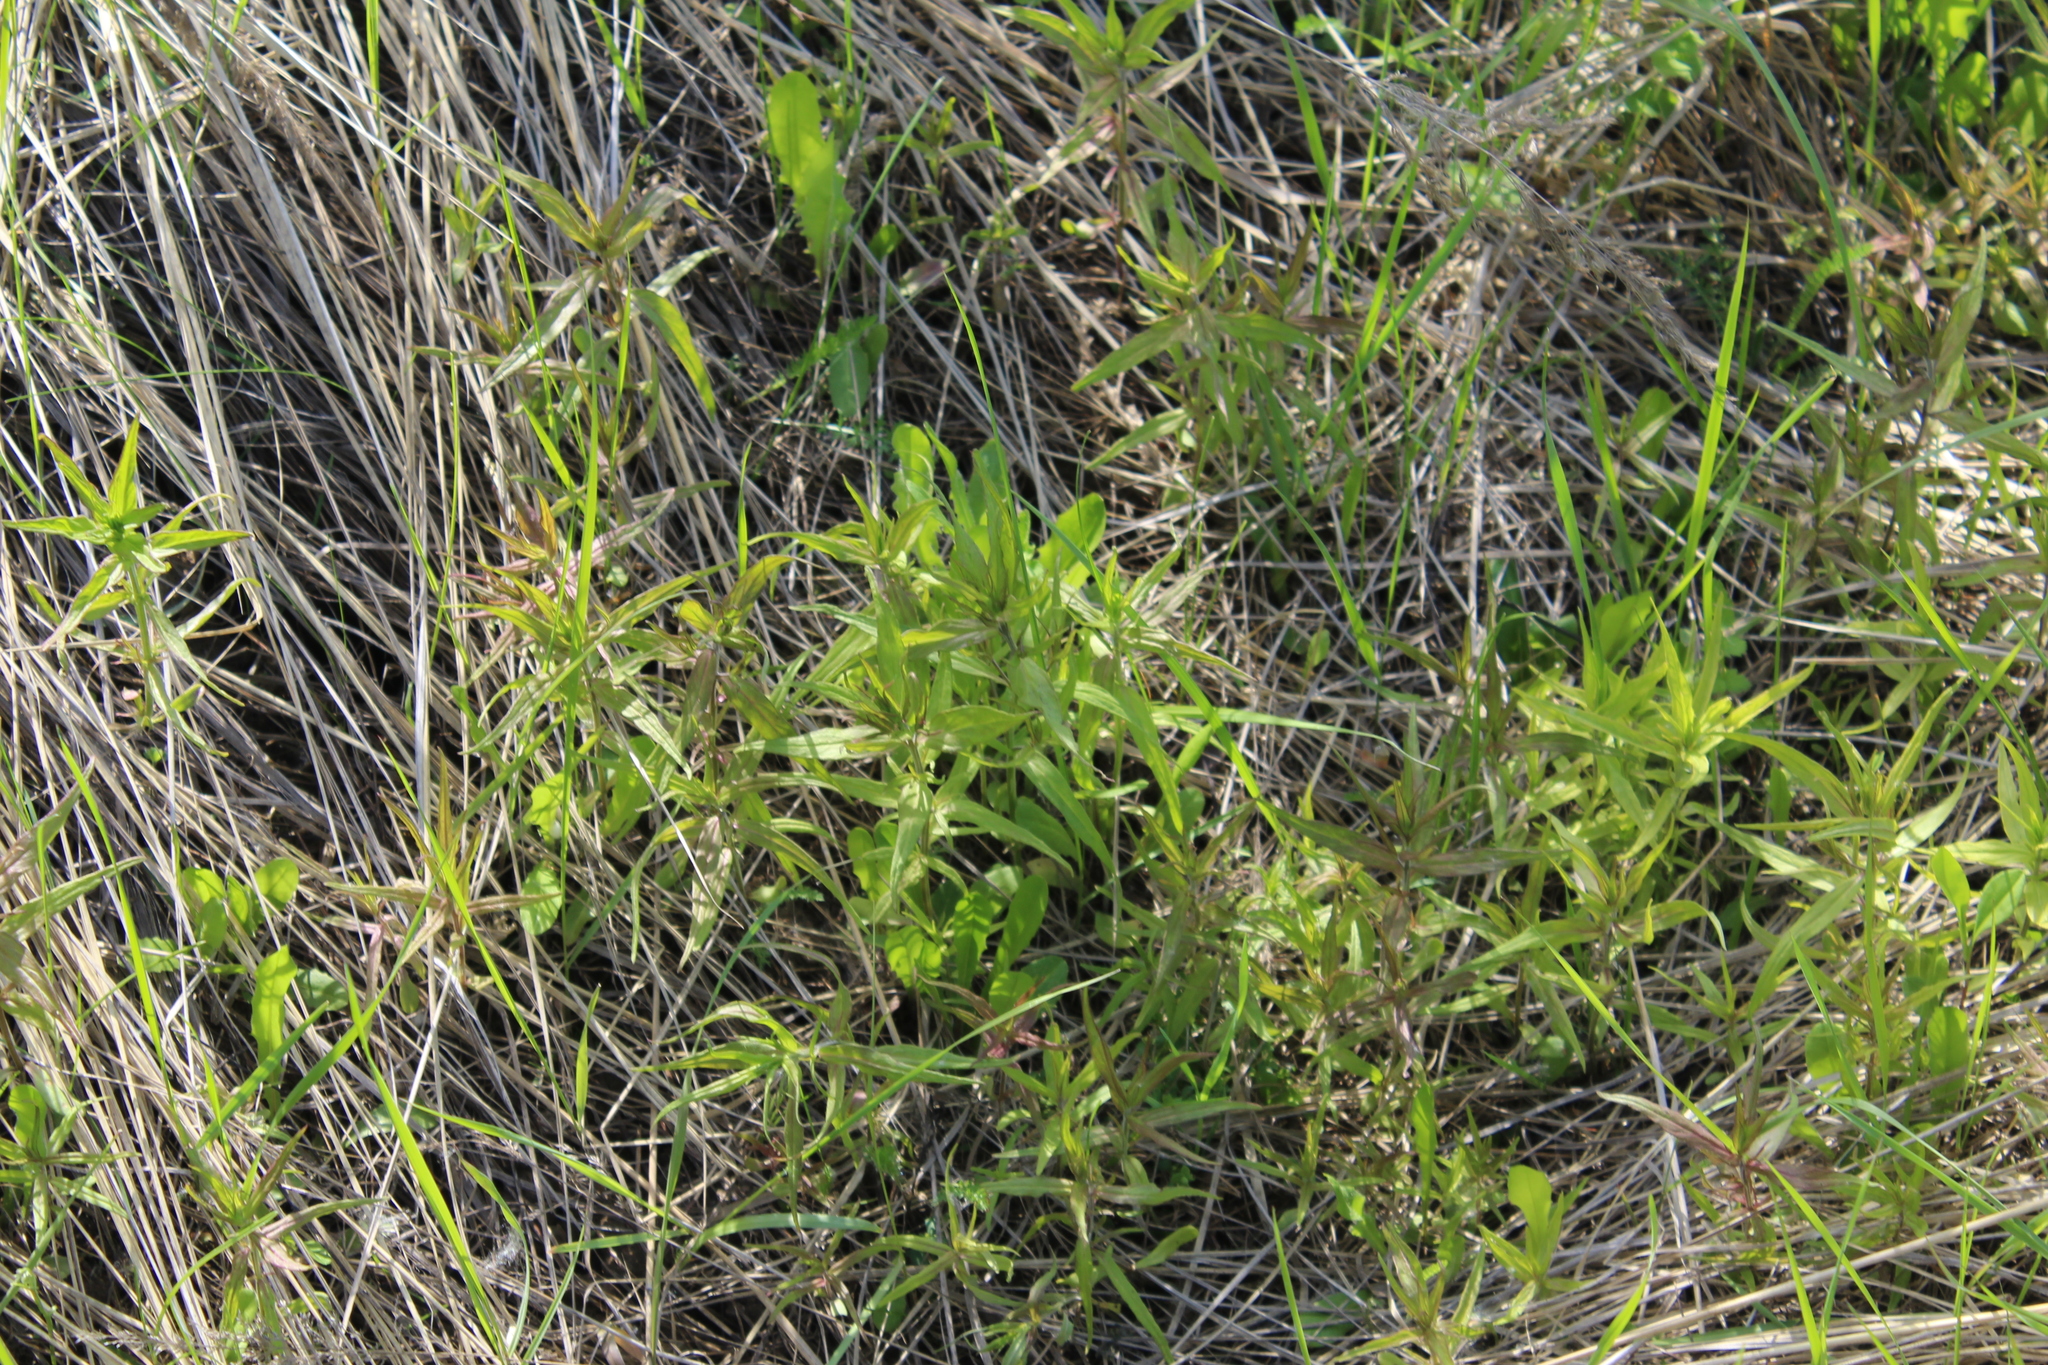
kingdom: Plantae
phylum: Tracheophyta
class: Magnoliopsida
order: Lamiales
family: Orobanchaceae
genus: Melampyrum
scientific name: Melampyrum nemorosum
